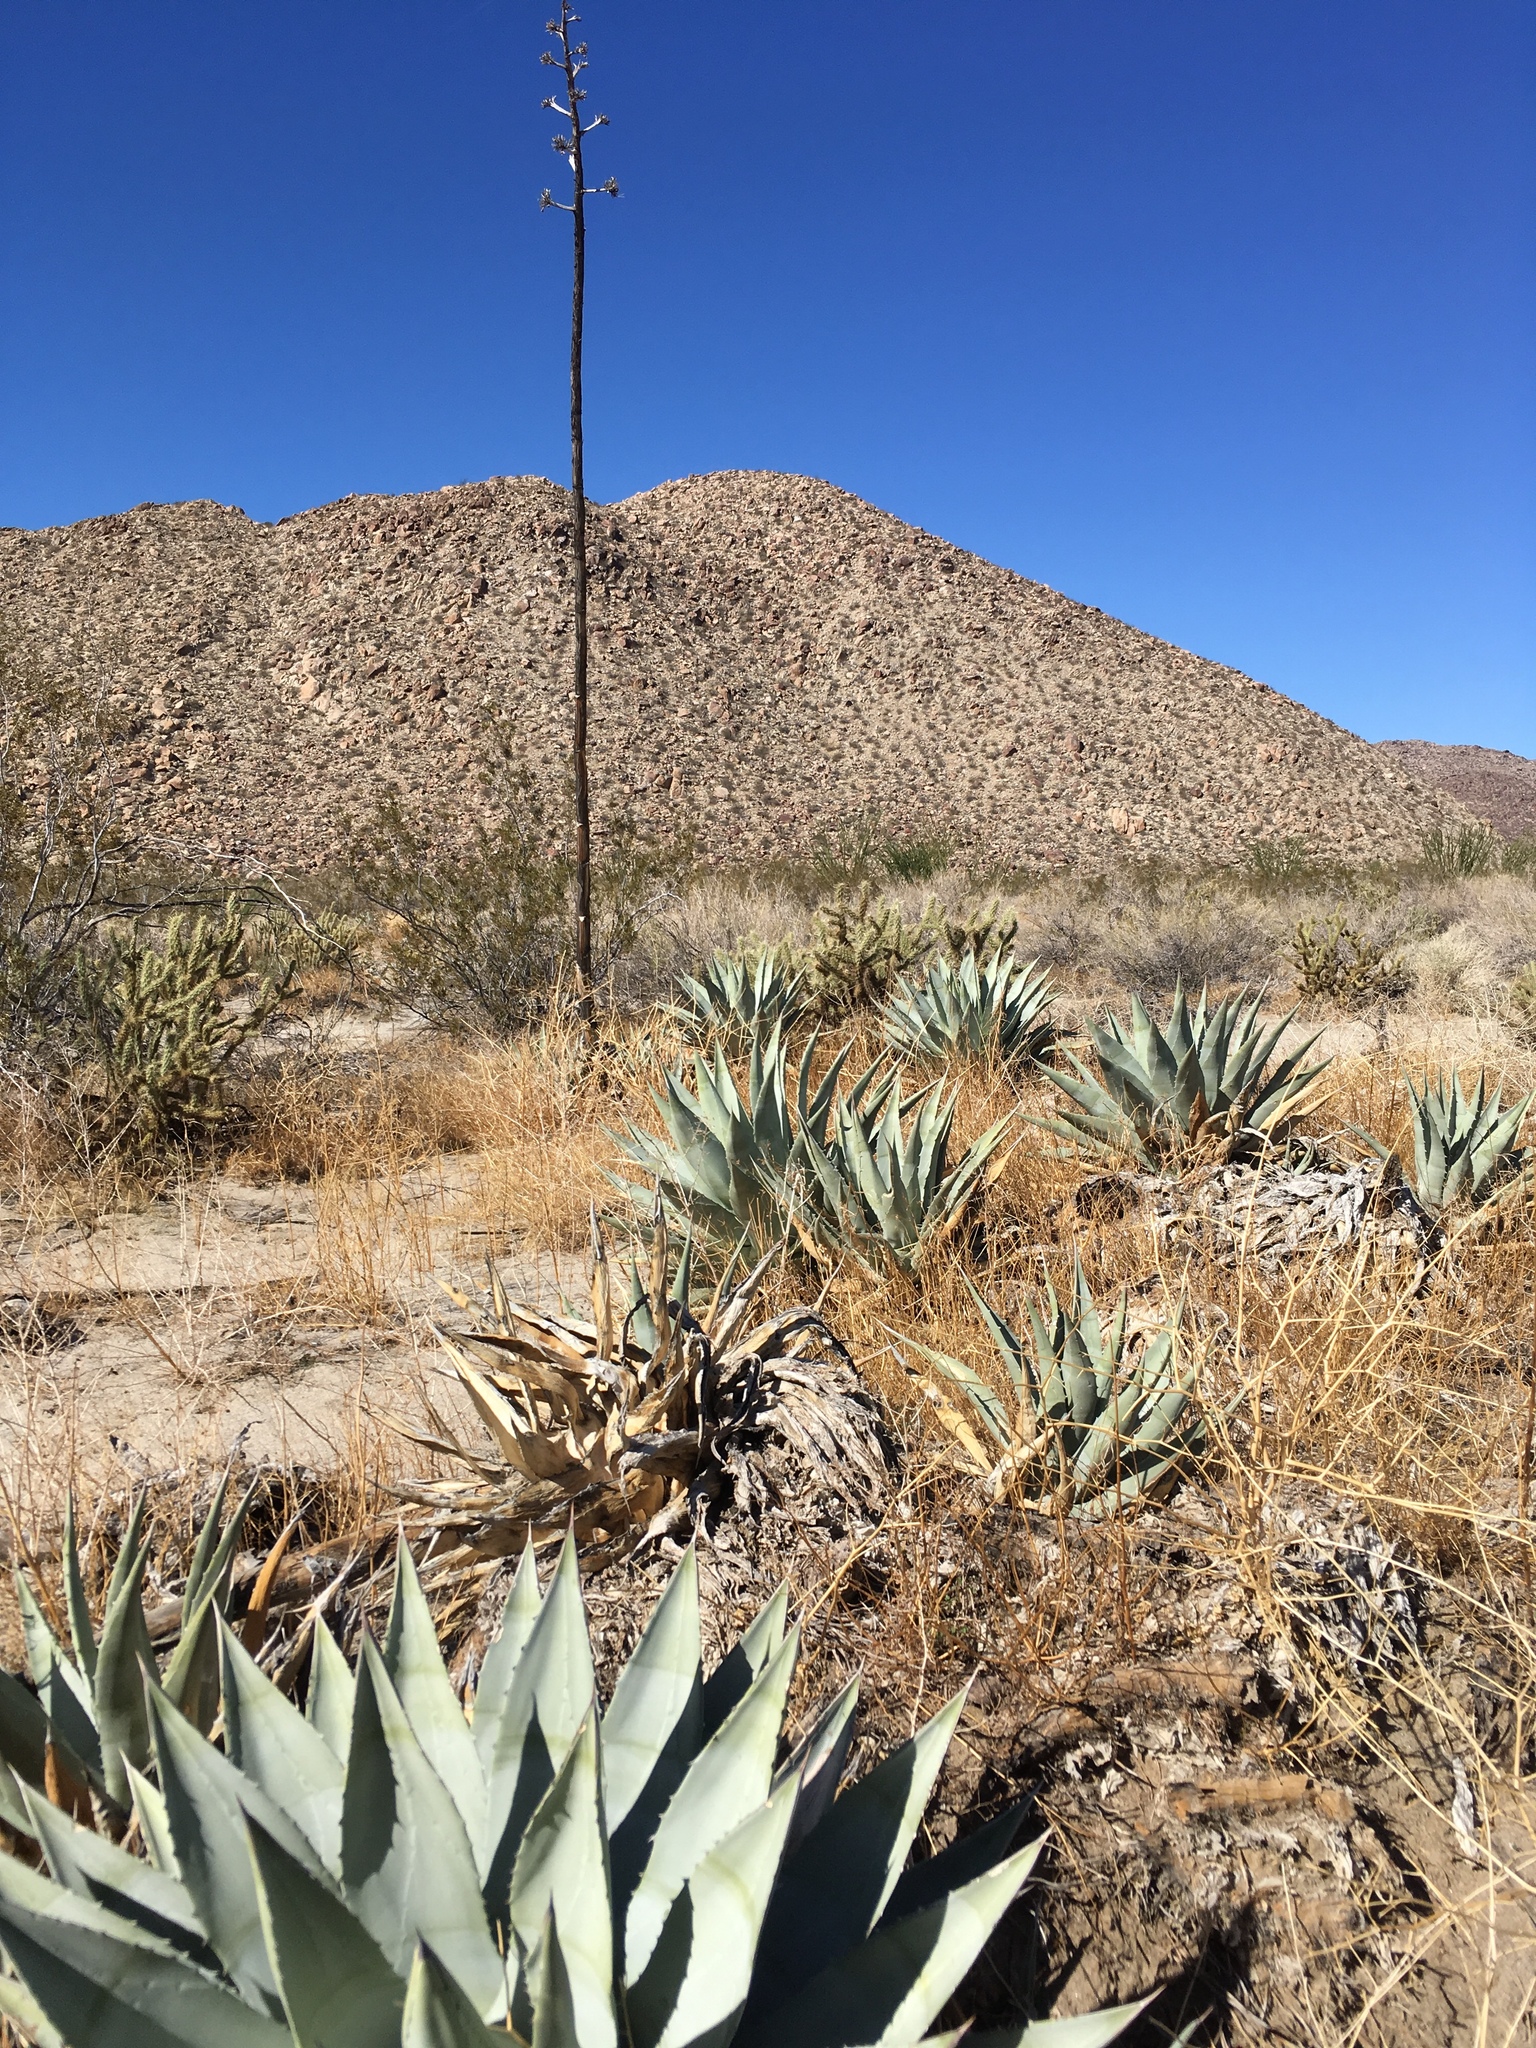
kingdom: Plantae
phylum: Tracheophyta
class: Liliopsida
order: Asparagales
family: Asparagaceae
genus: Agave
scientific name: Agave deserti
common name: Desert agave
